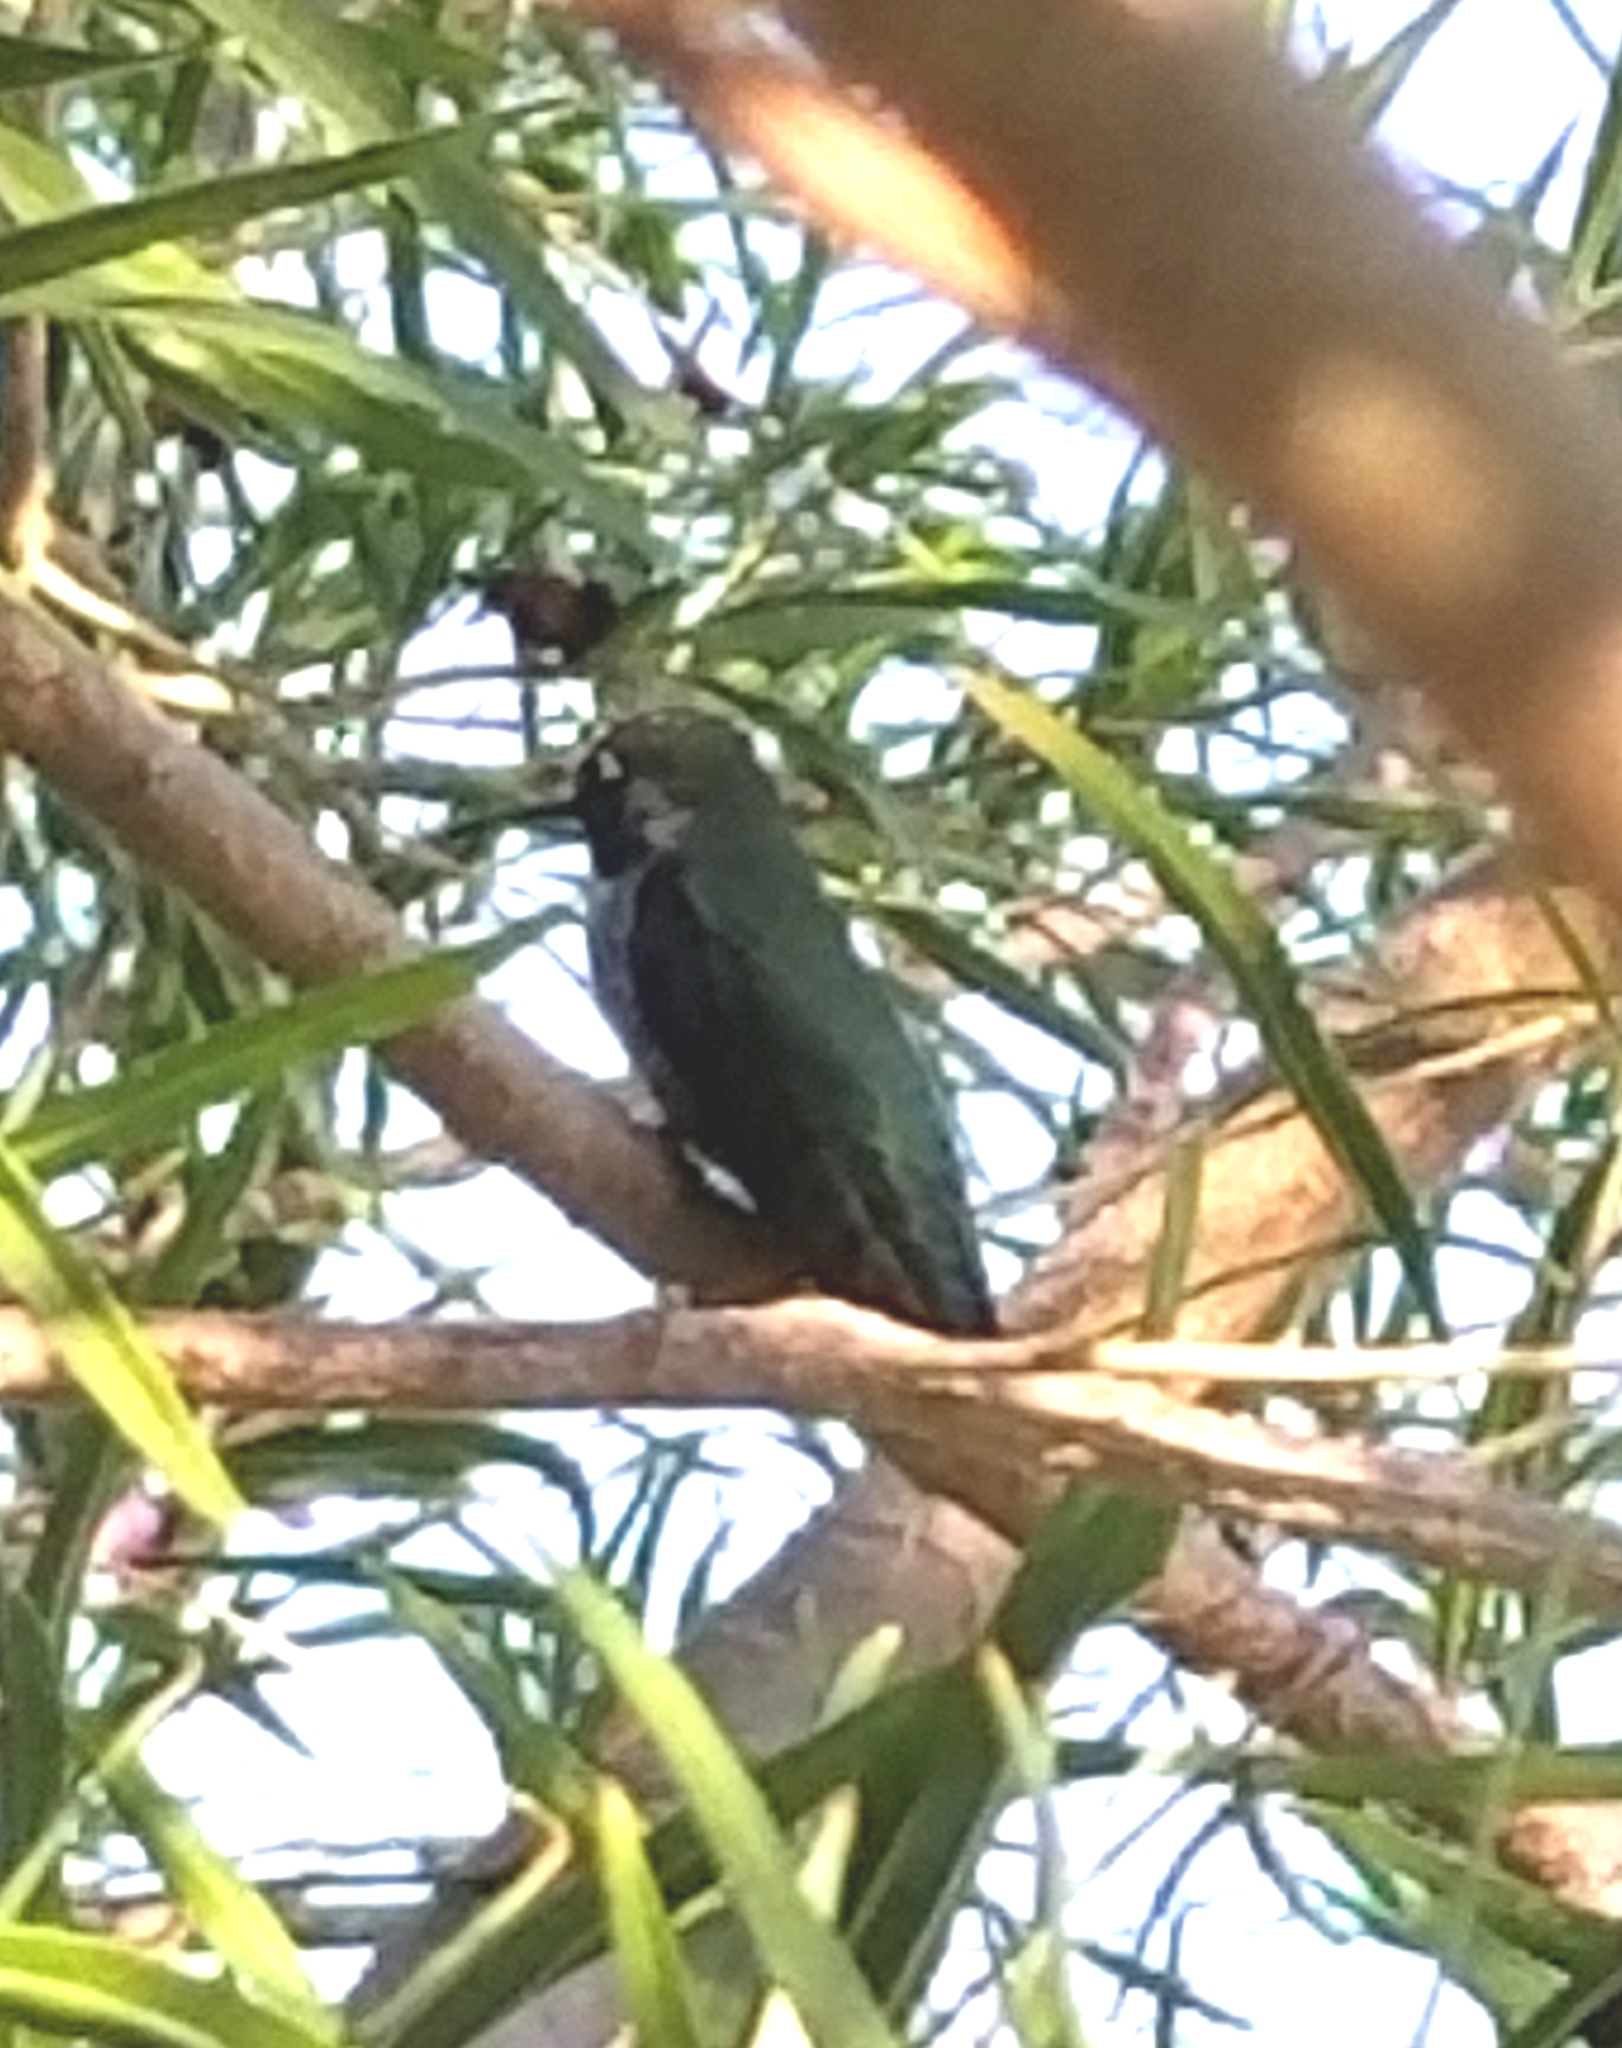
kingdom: Animalia
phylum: Chordata
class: Aves
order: Apodiformes
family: Trochilidae
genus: Calypte
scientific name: Calypte anna
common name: Anna's hummingbird
